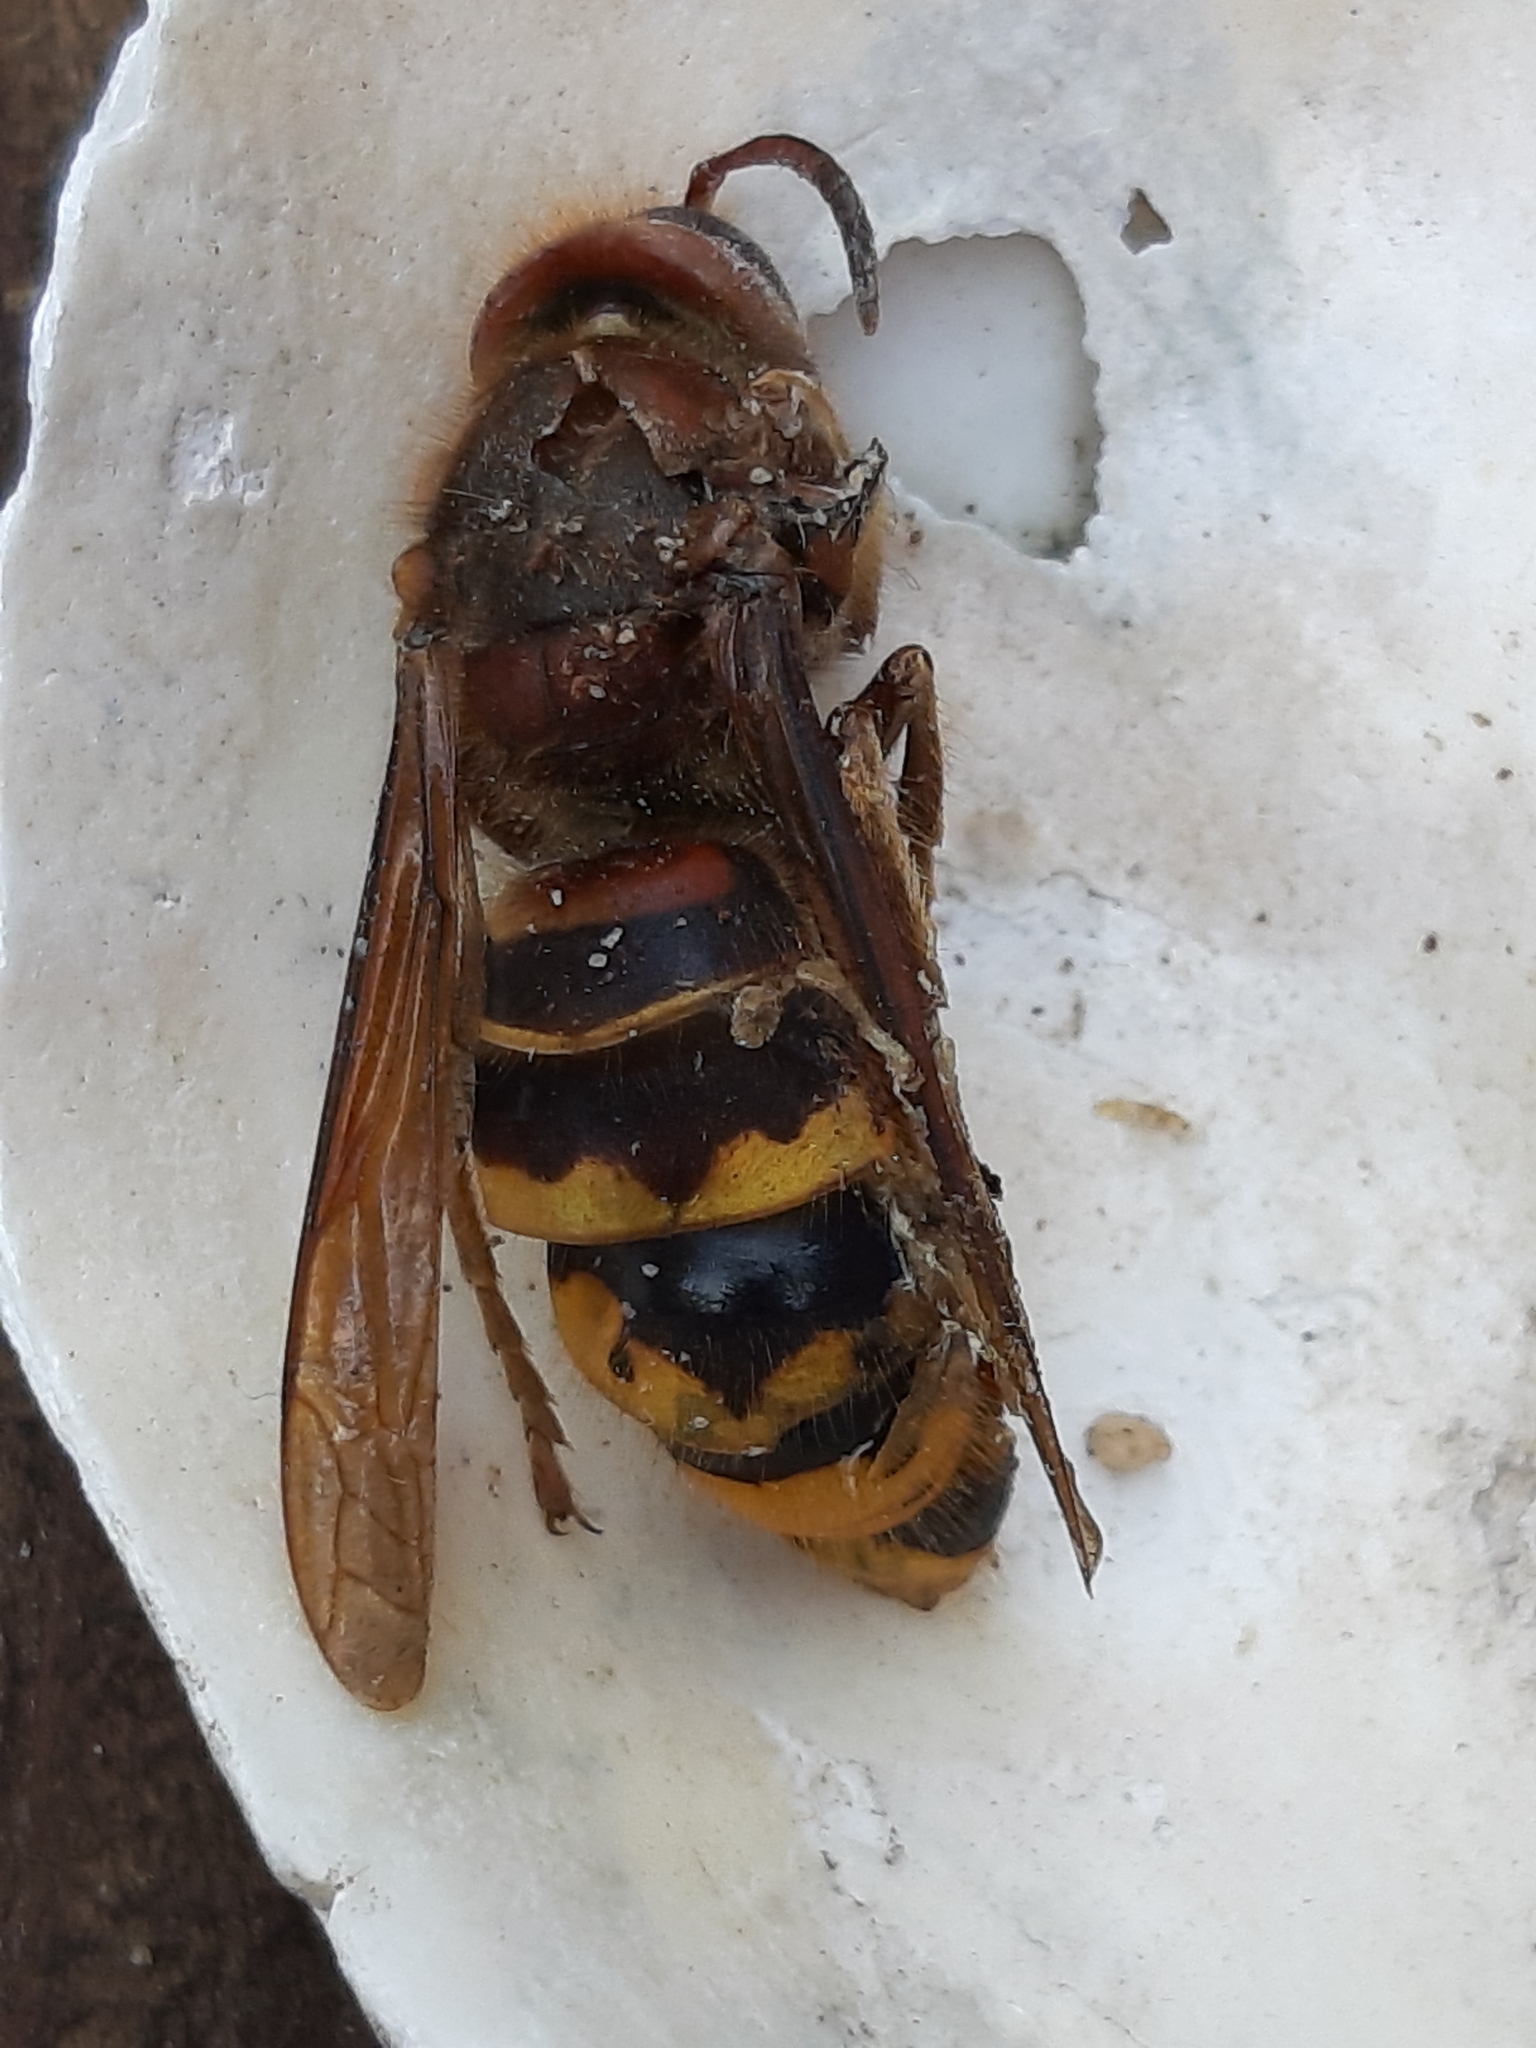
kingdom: Animalia
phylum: Arthropoda
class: Insecta
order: Hymenoptera
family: Vespidae
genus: Vespa
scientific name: Vespa crabro
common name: Hornet
